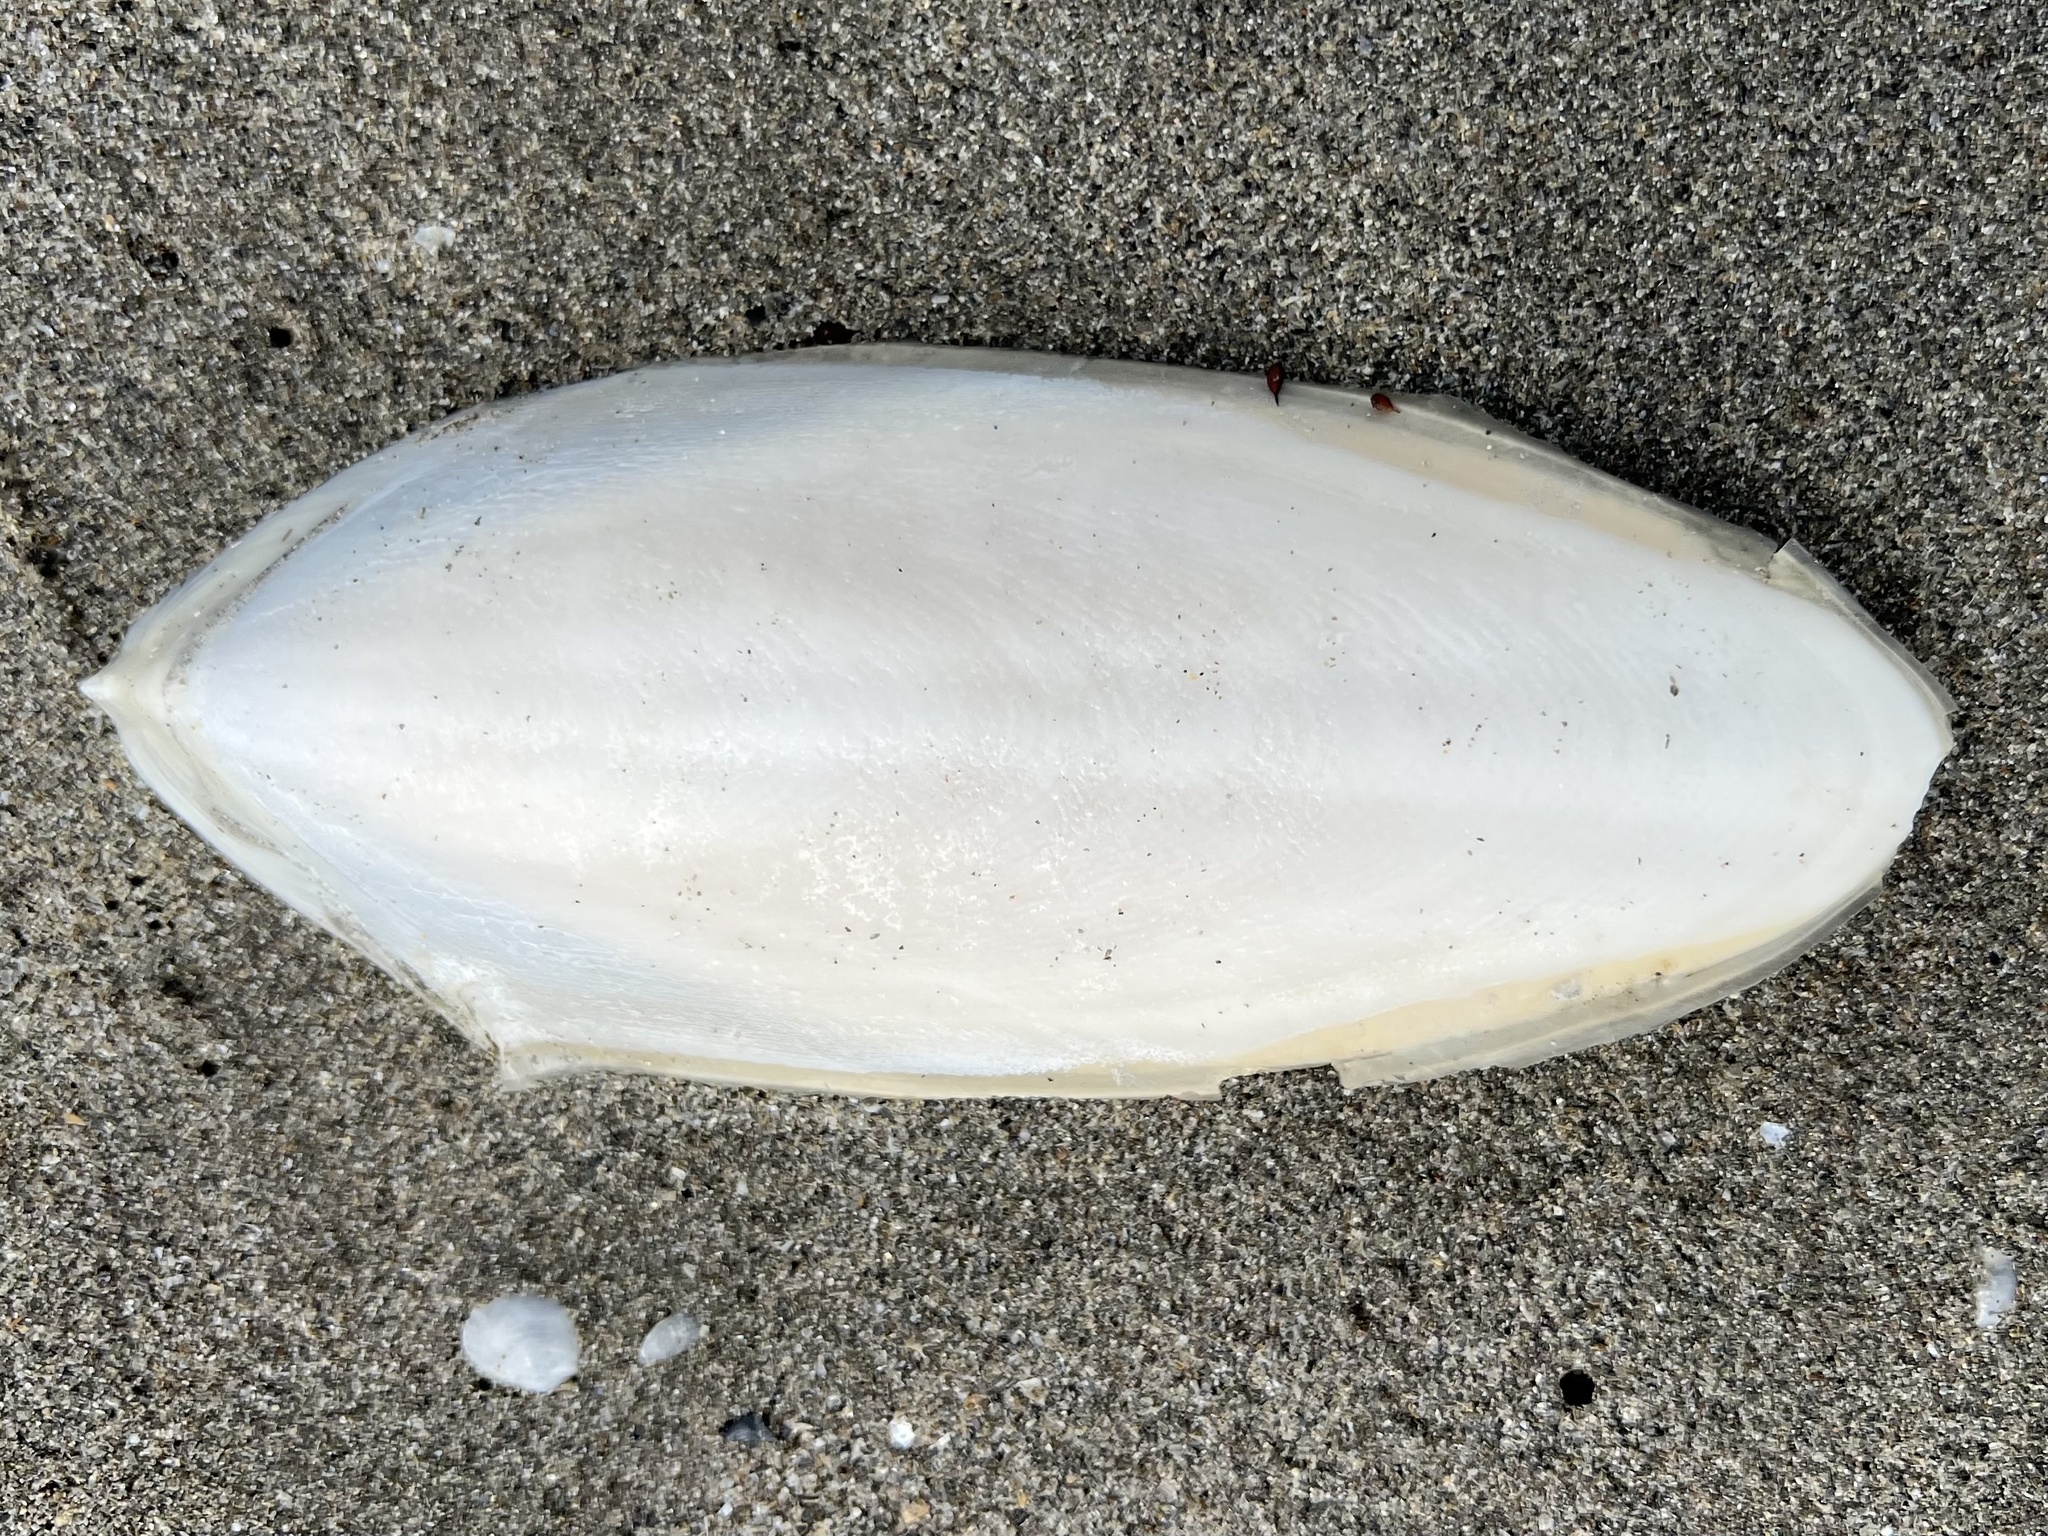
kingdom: Animalia
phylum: Mollusca
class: Cephalopoda
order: Sepiida
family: Sepiidae
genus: Sepia
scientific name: Sepia officinalis
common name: Common cuttlefish
